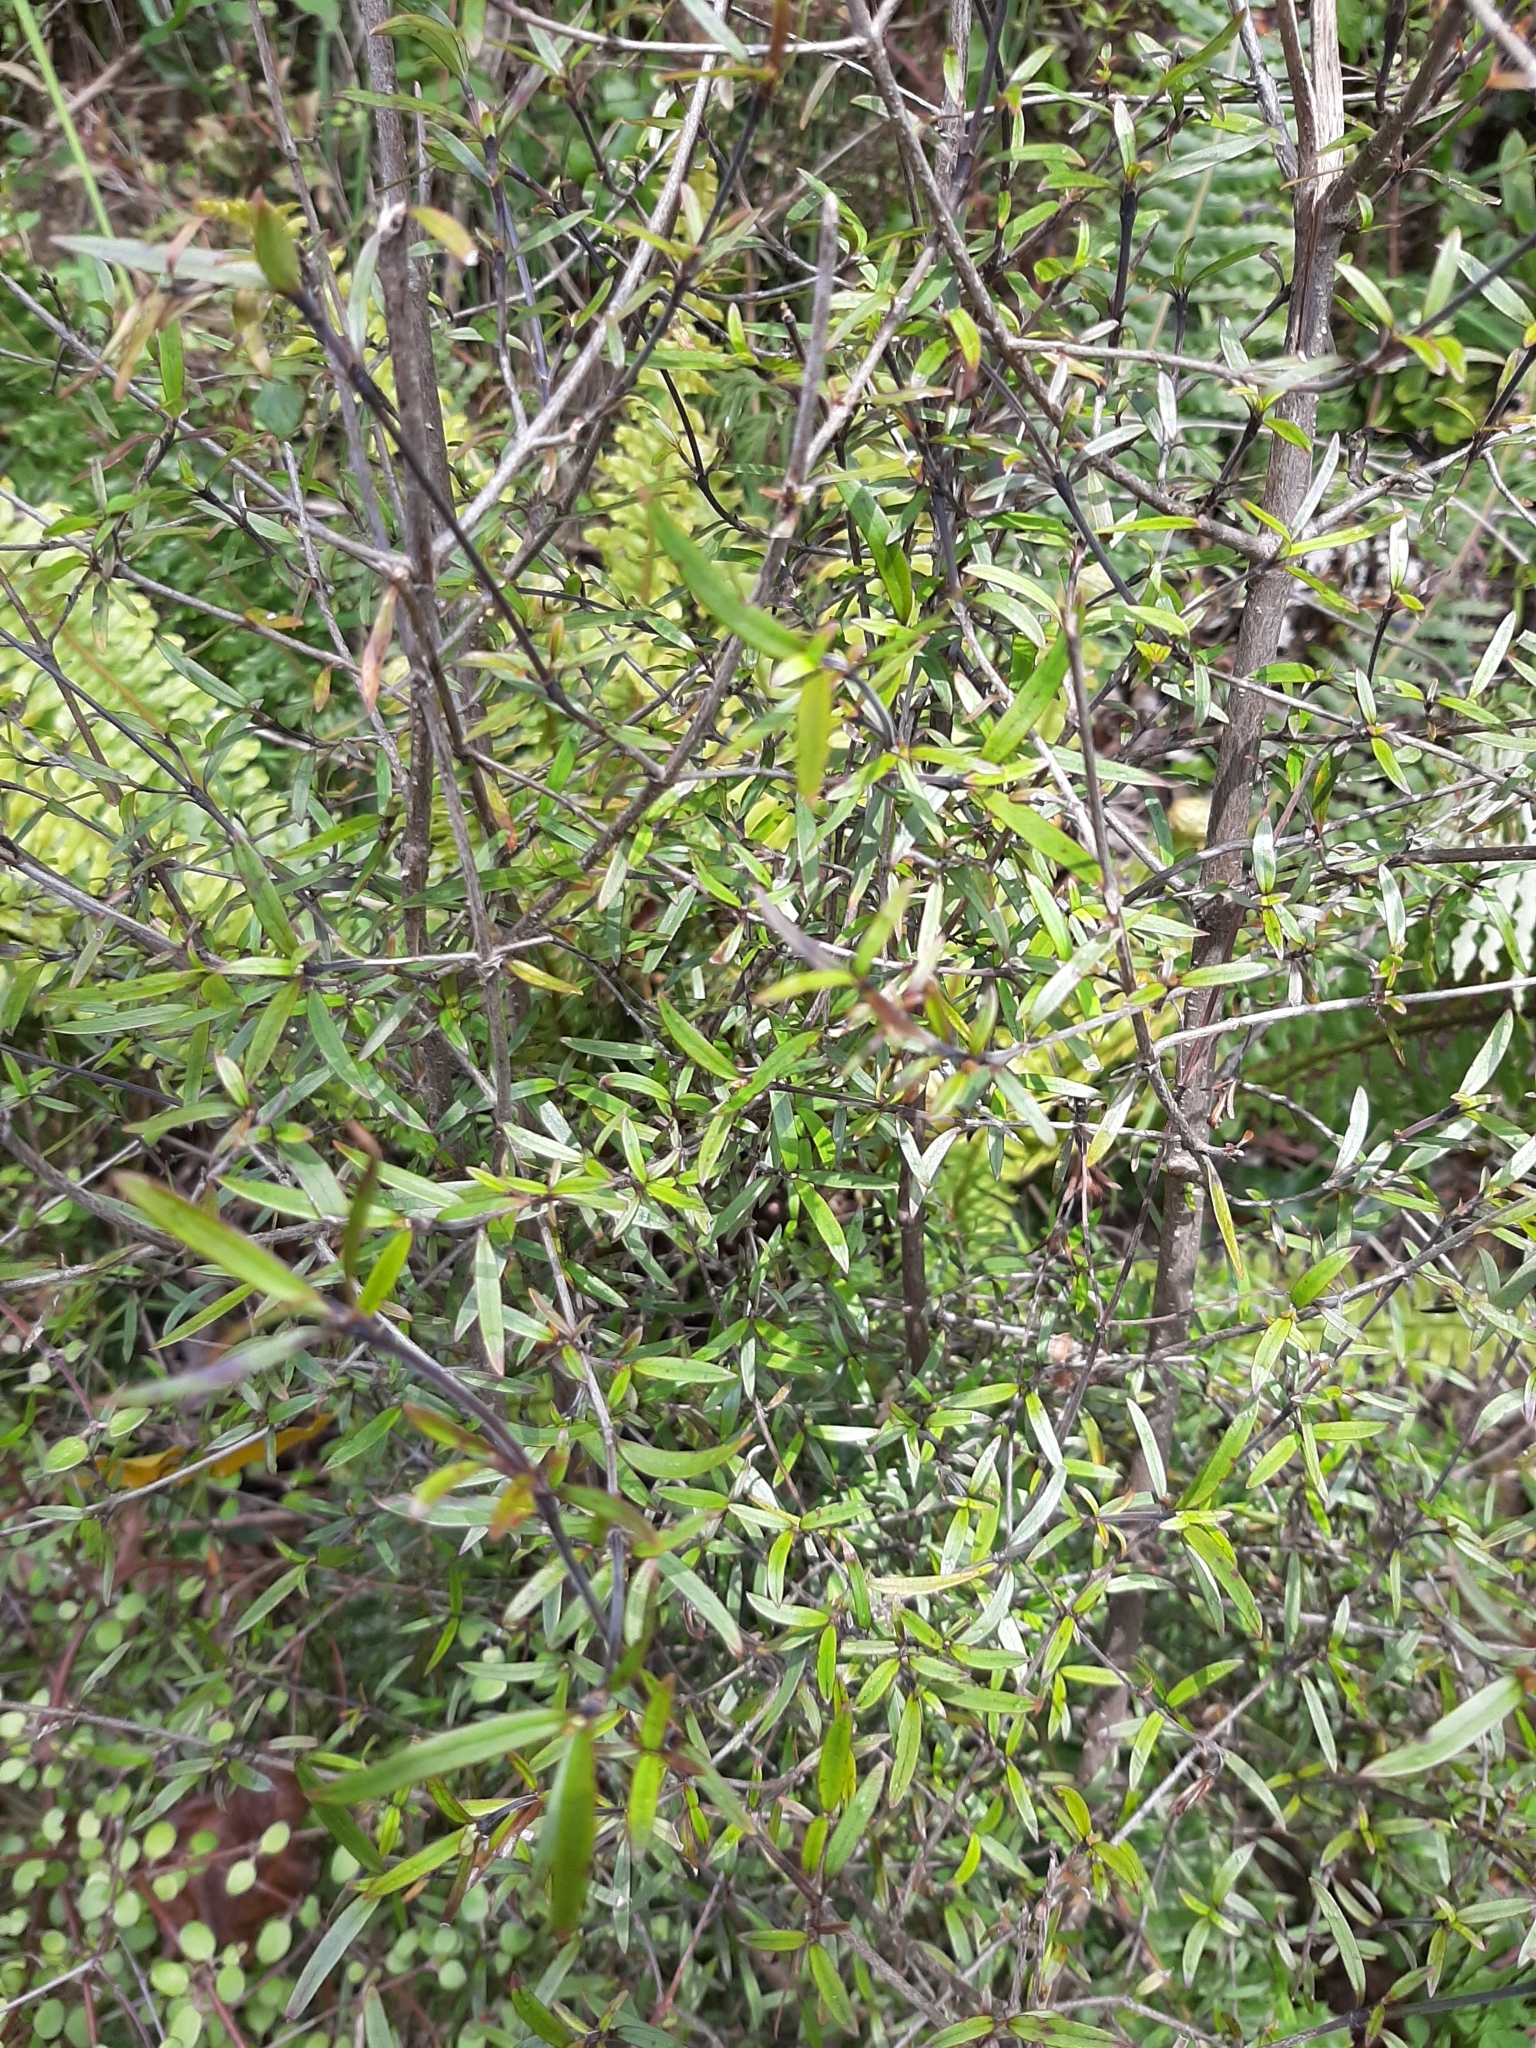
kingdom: Plantae
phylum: Tracheophyta
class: Magnoliopsida
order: Gentianales
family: Rubiaceae
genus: Coprosma
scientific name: Coprosma linariifolia
